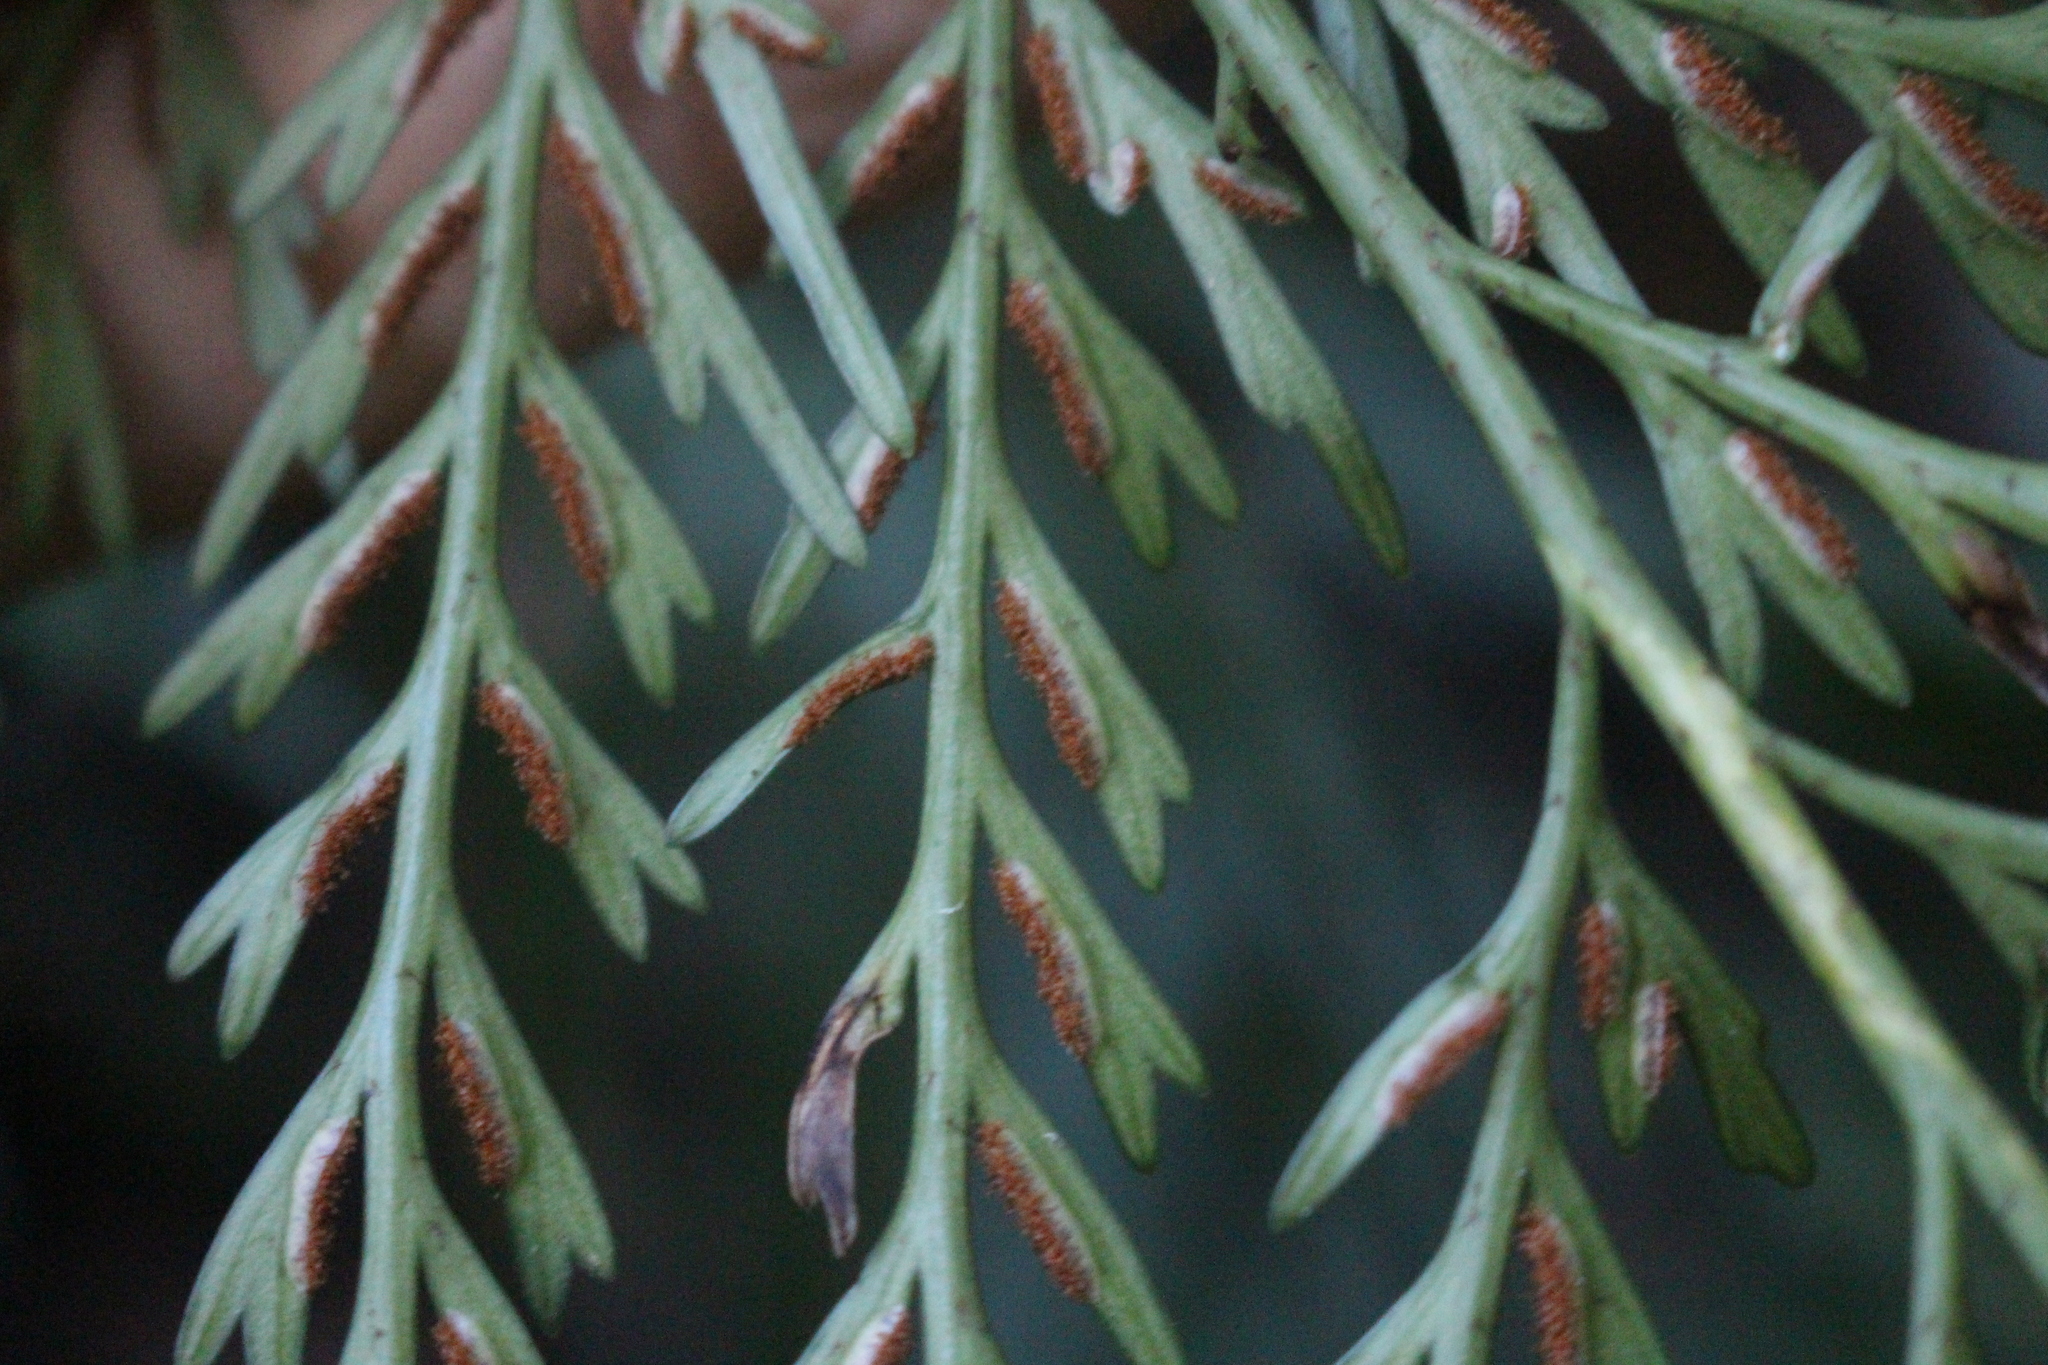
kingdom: Plantae
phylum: Tracheophyta
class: Polypodiopsida
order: Polypodiales
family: Aspleniaceae
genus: Asplenium
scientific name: Asplenium flaccidum
